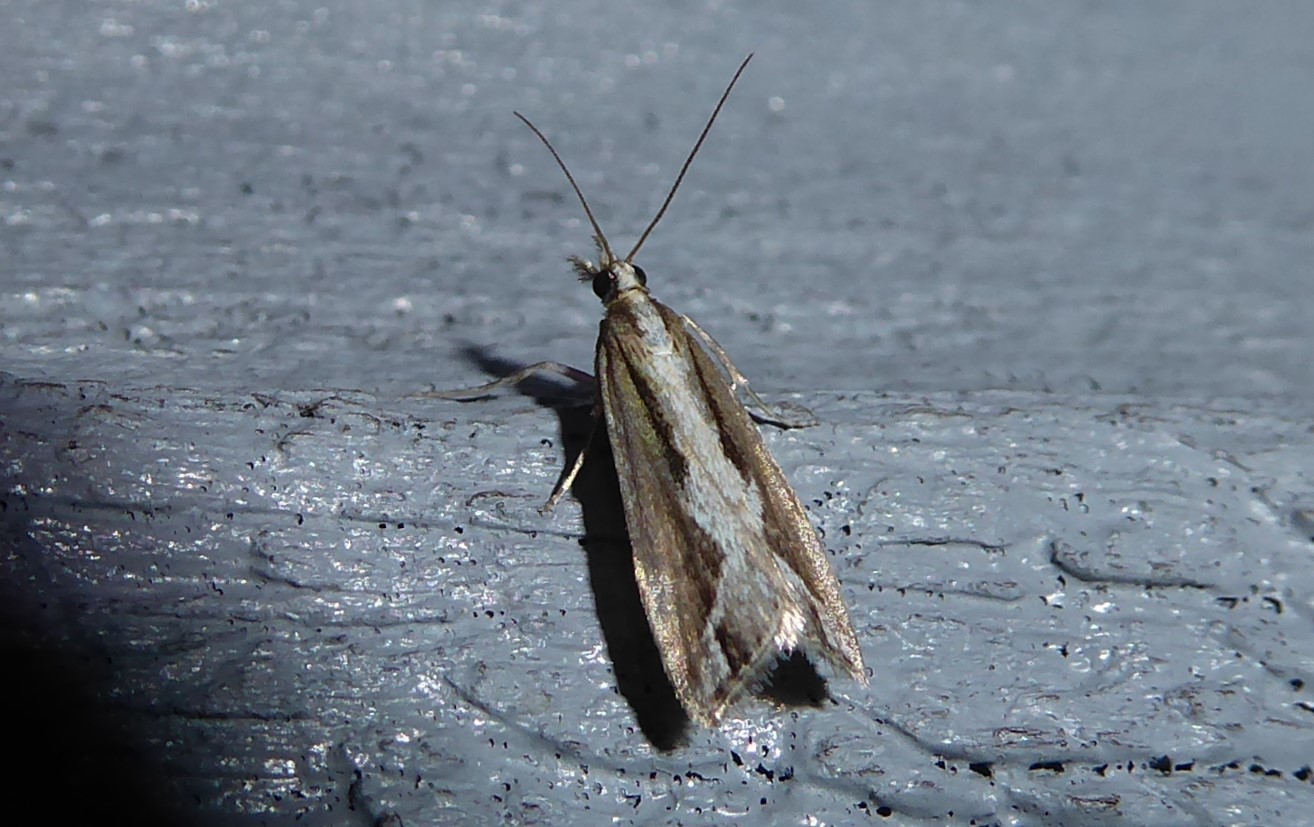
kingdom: Animalia
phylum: Arthropoda
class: Insecta
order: Lepidoptera
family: Crambidae
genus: Eudonia
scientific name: Eudonia steropaea
